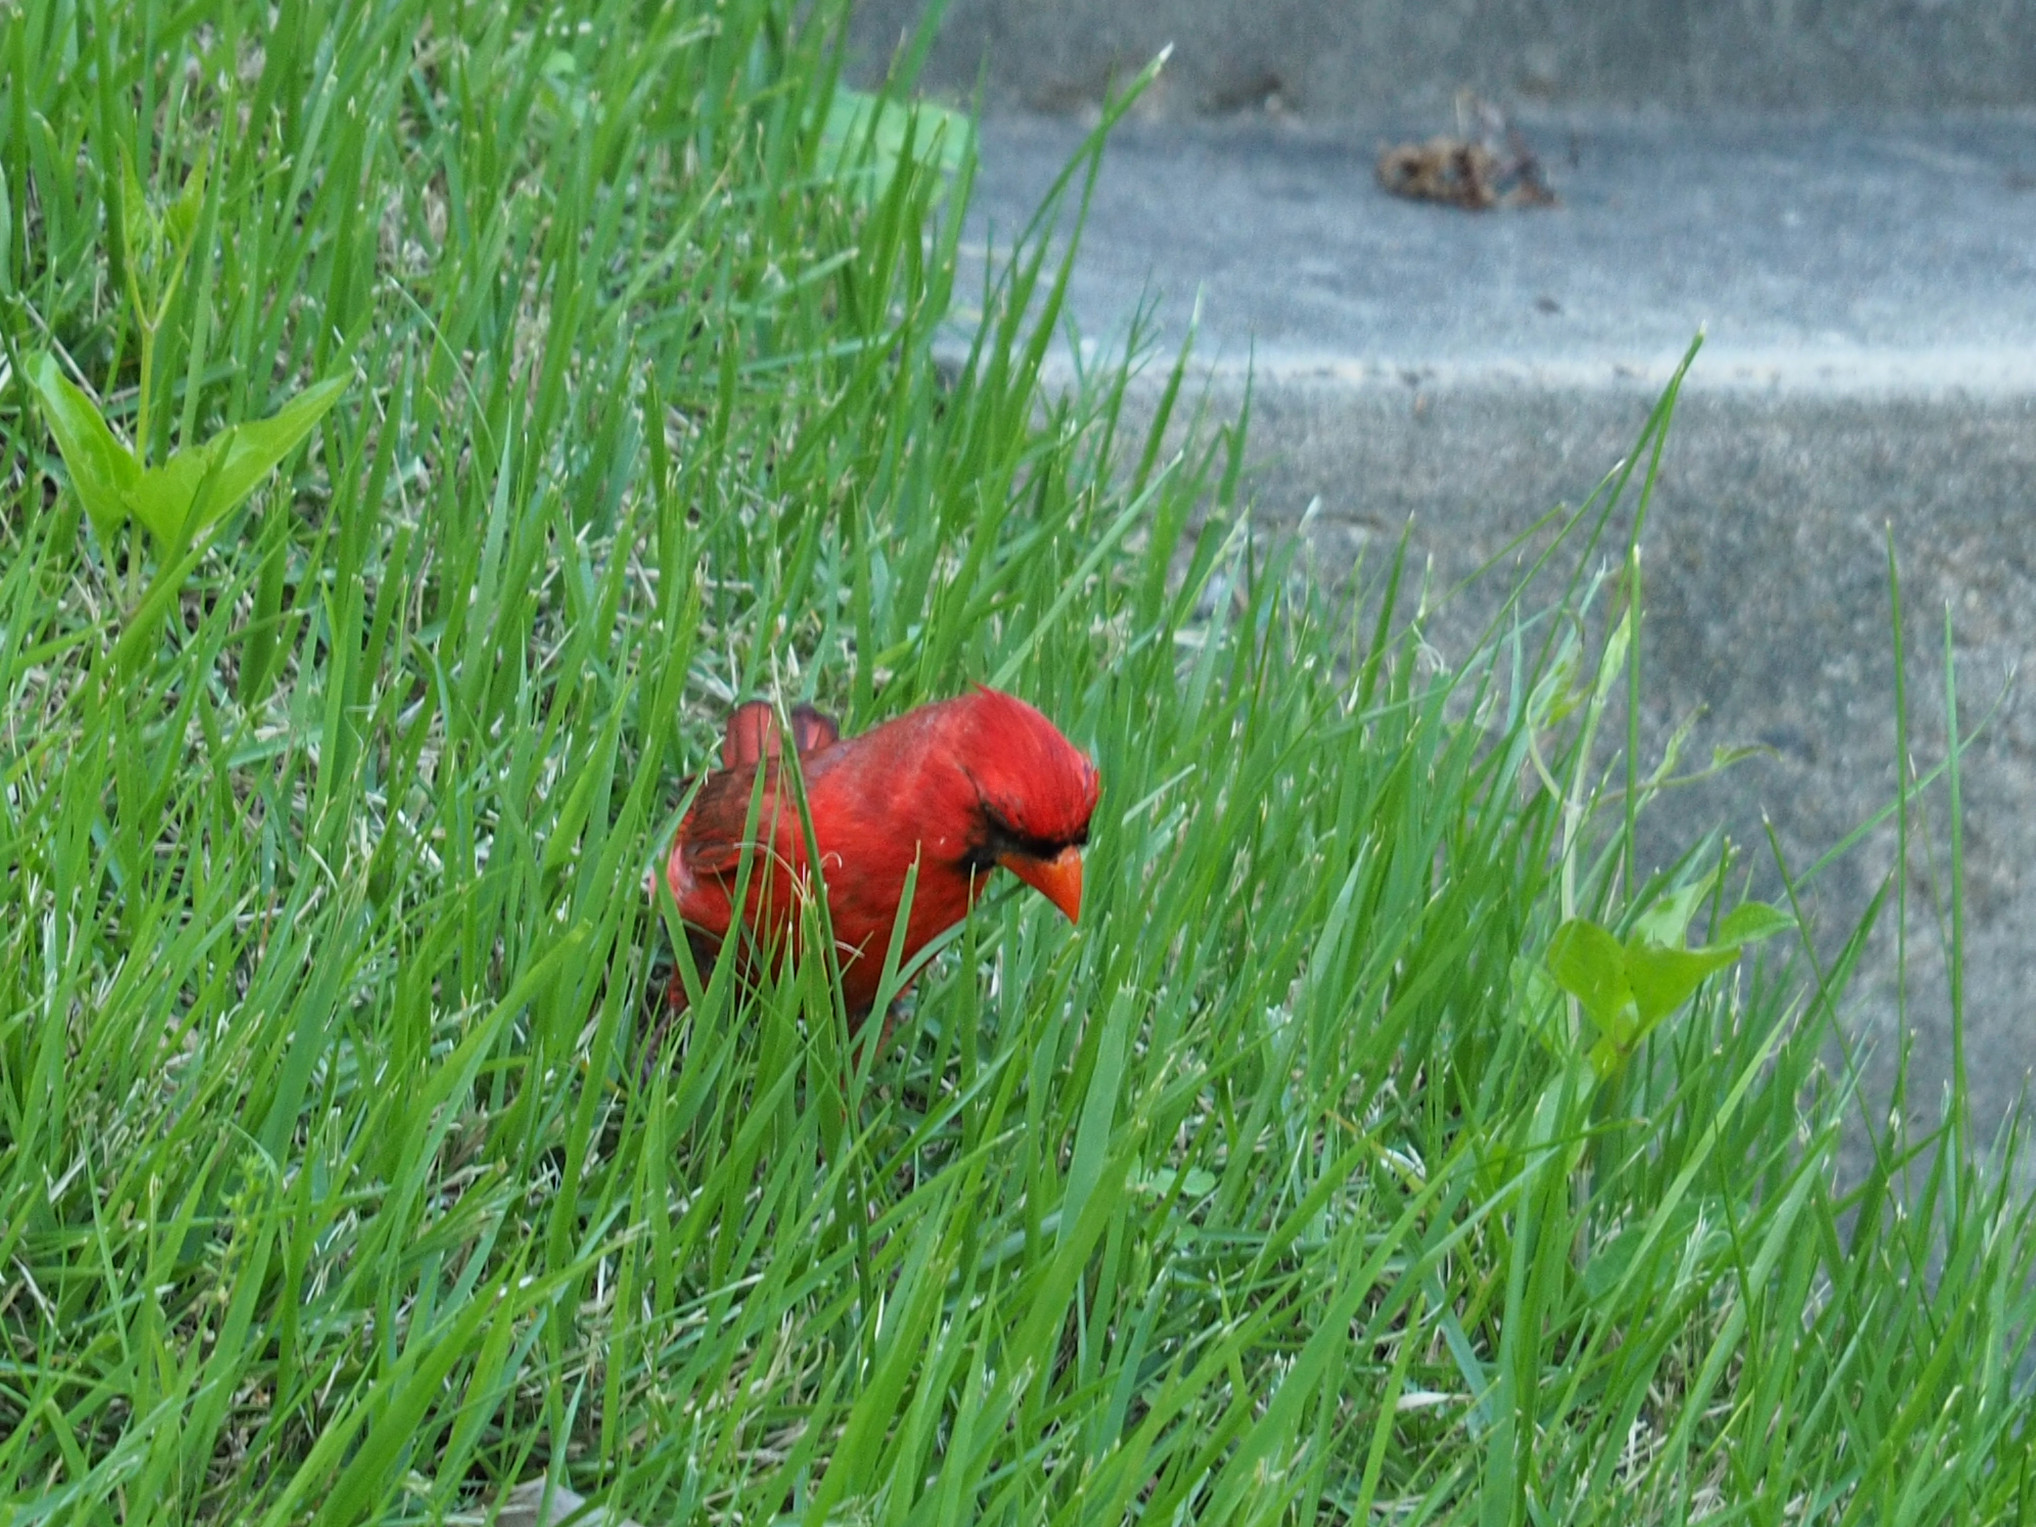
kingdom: Animalia
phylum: Chordata
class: Aves
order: Passeriformes
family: Cardinalidae
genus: Cardinalis
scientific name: Cardinalis cardinalis
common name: Northern cardinal
